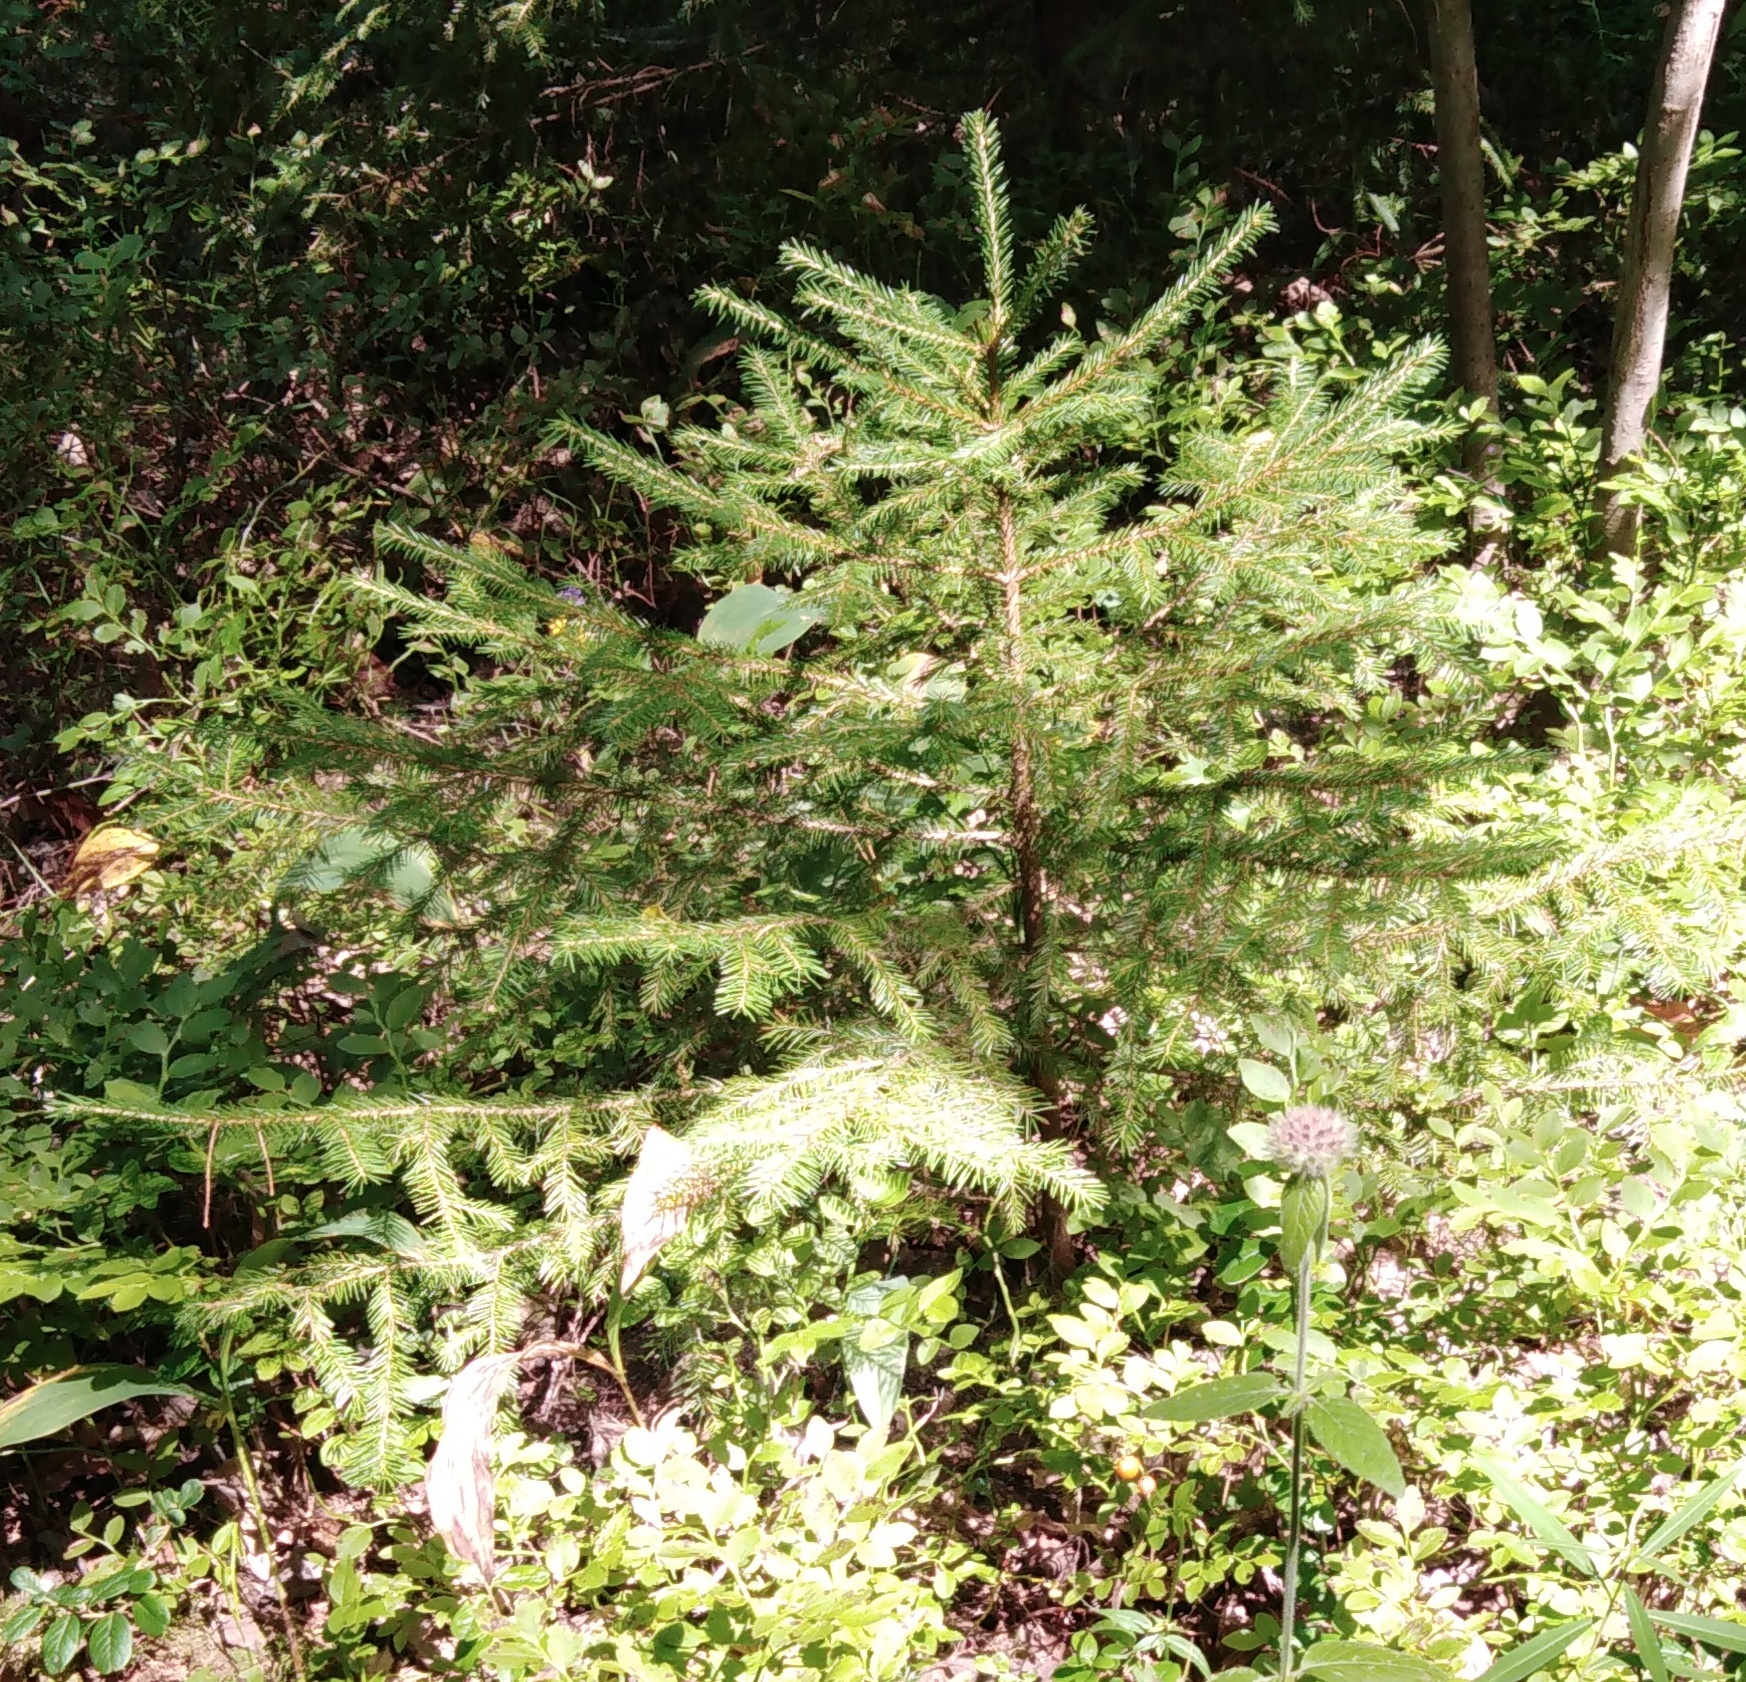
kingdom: Plantae
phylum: Tracheophyta
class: Pinopsida
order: Pinales
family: Pinaceae
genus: Picea
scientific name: Picea abies
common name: Norway spruce
